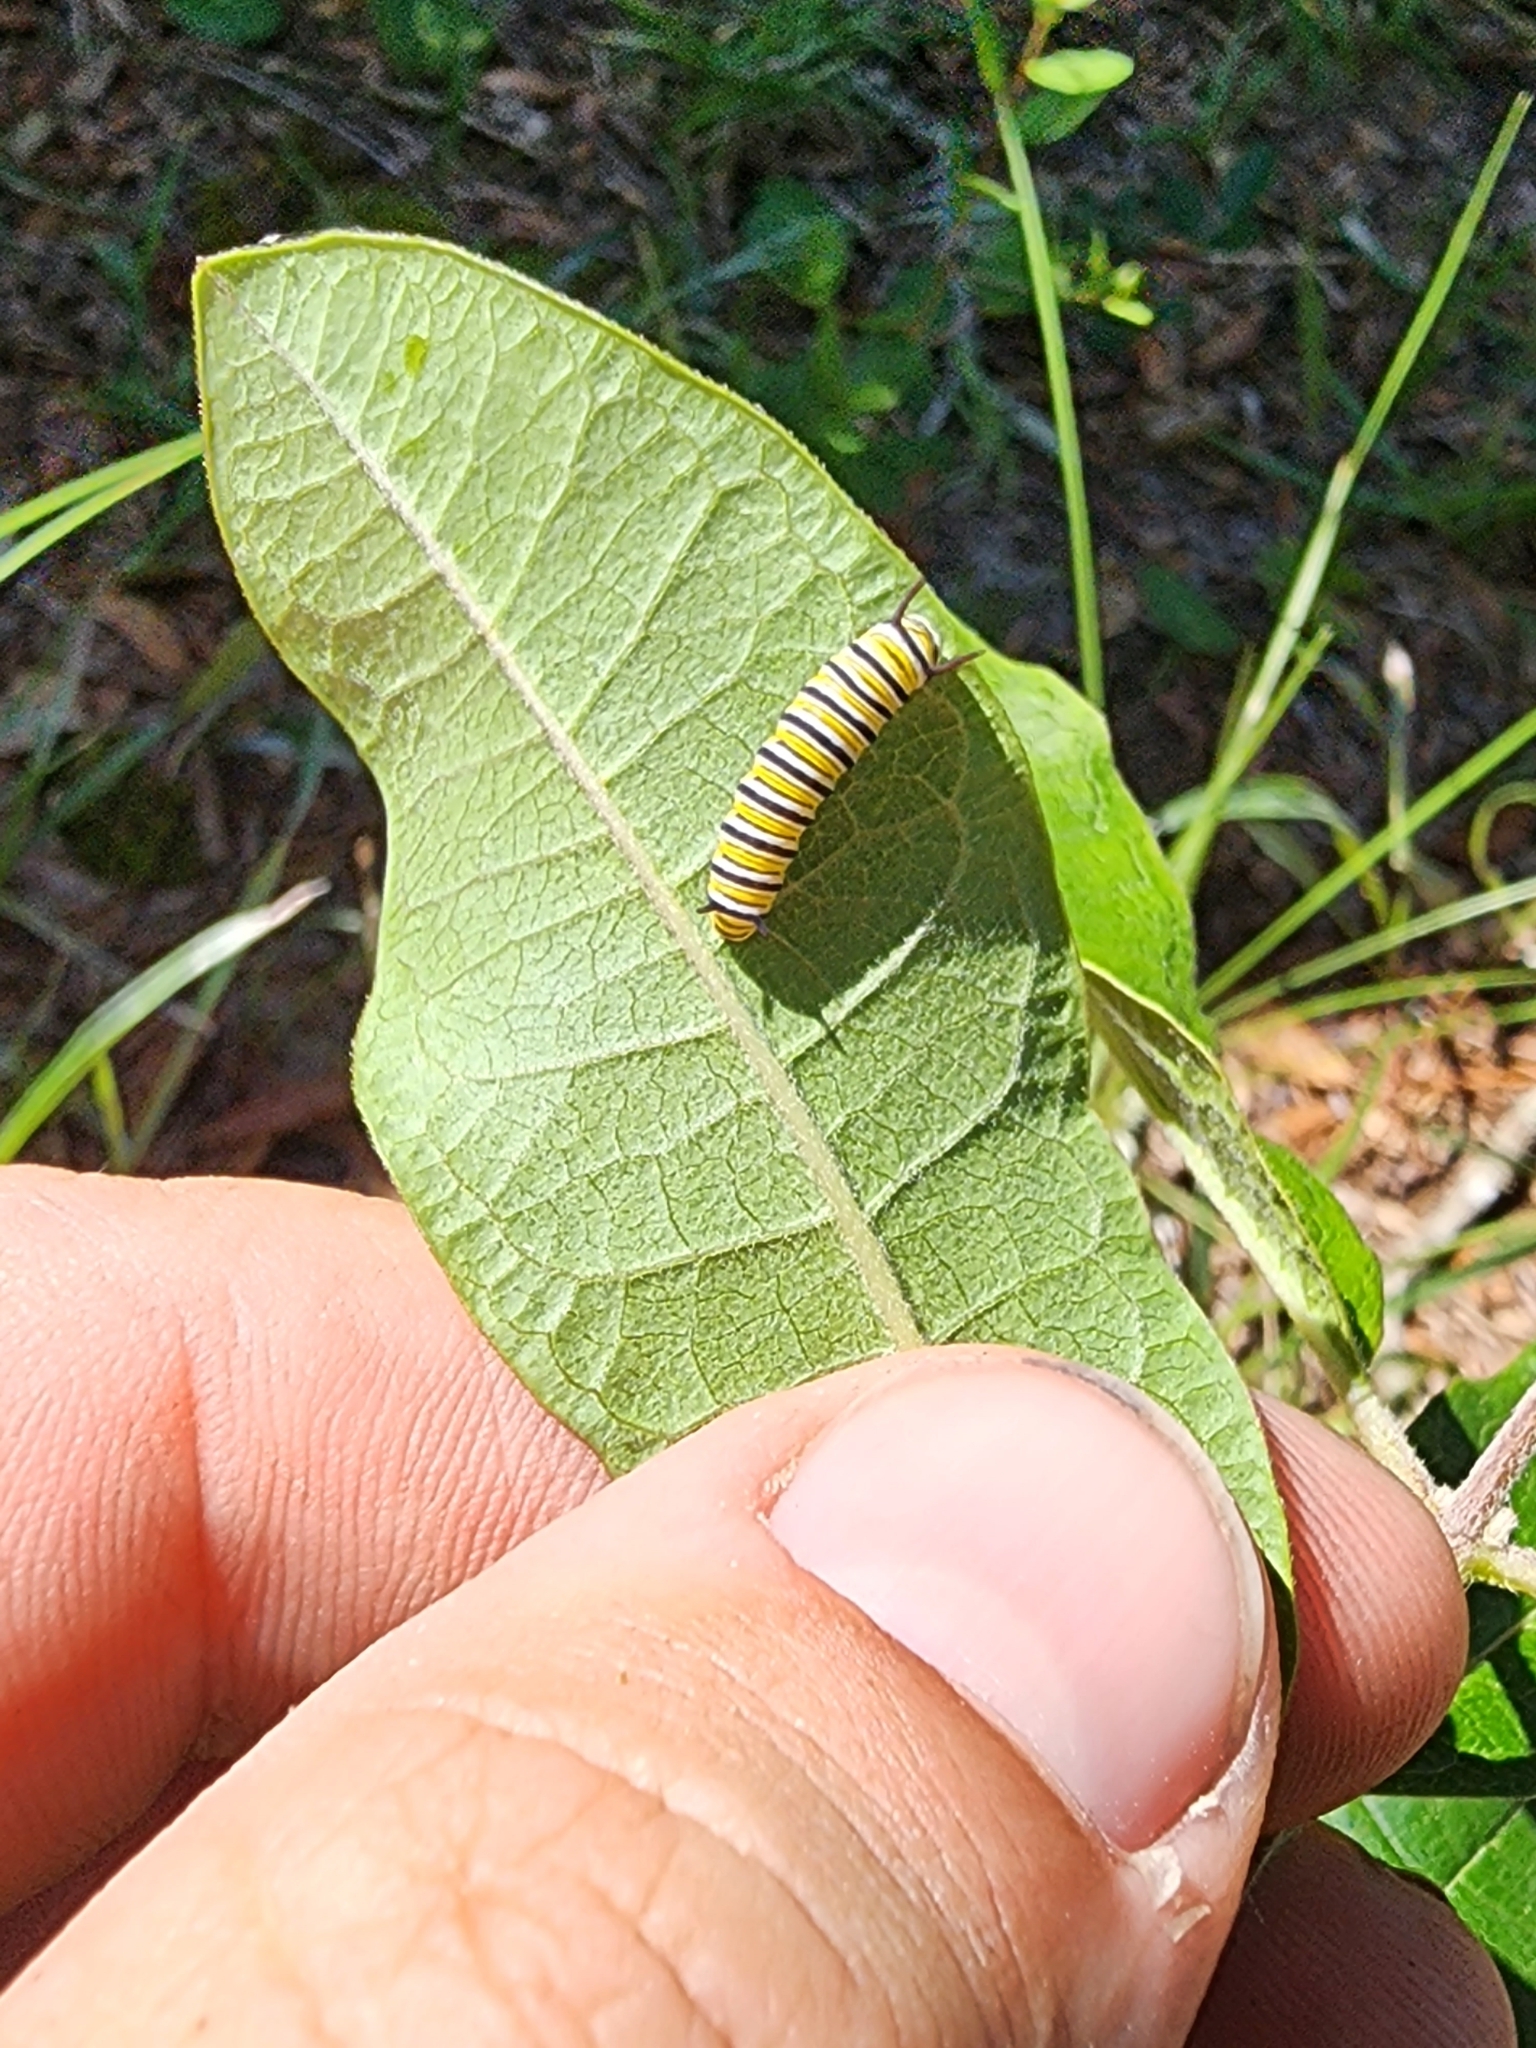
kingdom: Animalia
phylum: Arthropoda
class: Insecta
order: Lepidoptera
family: Nymphalidae
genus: Danaus
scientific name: Danaus plexippus
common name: Monarch
